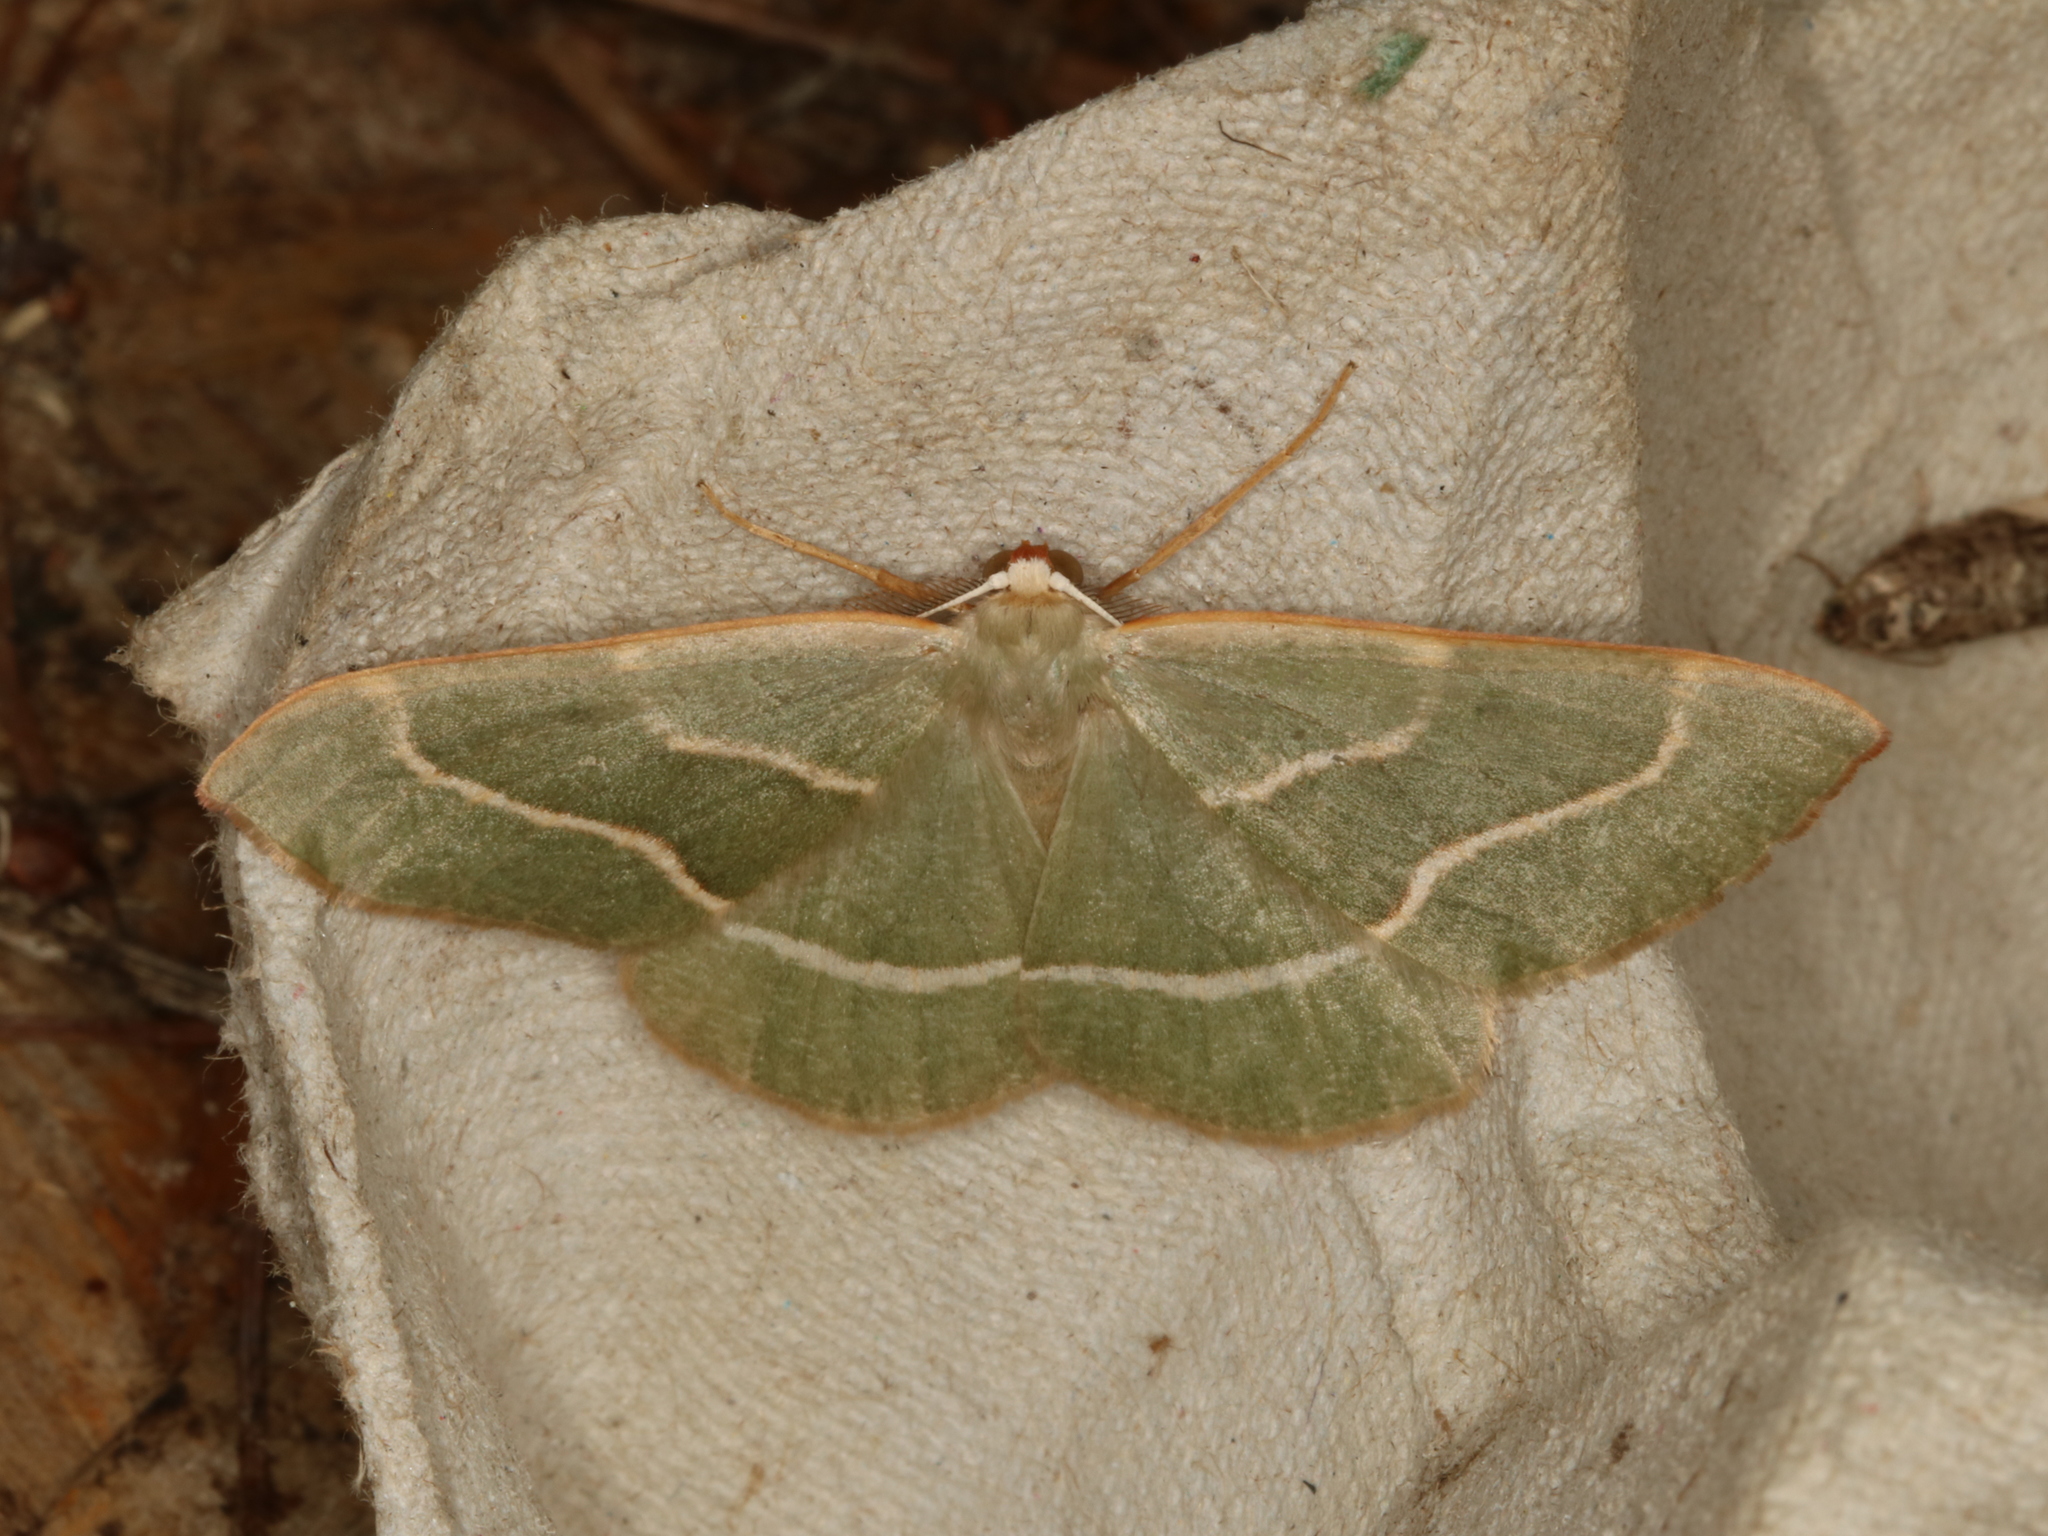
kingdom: Animalia
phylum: Arthropoda
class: Insecta
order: Lepidoptera
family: Geometridae
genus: Hylaea
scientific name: Hylaea fasciaria
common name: Barred red
